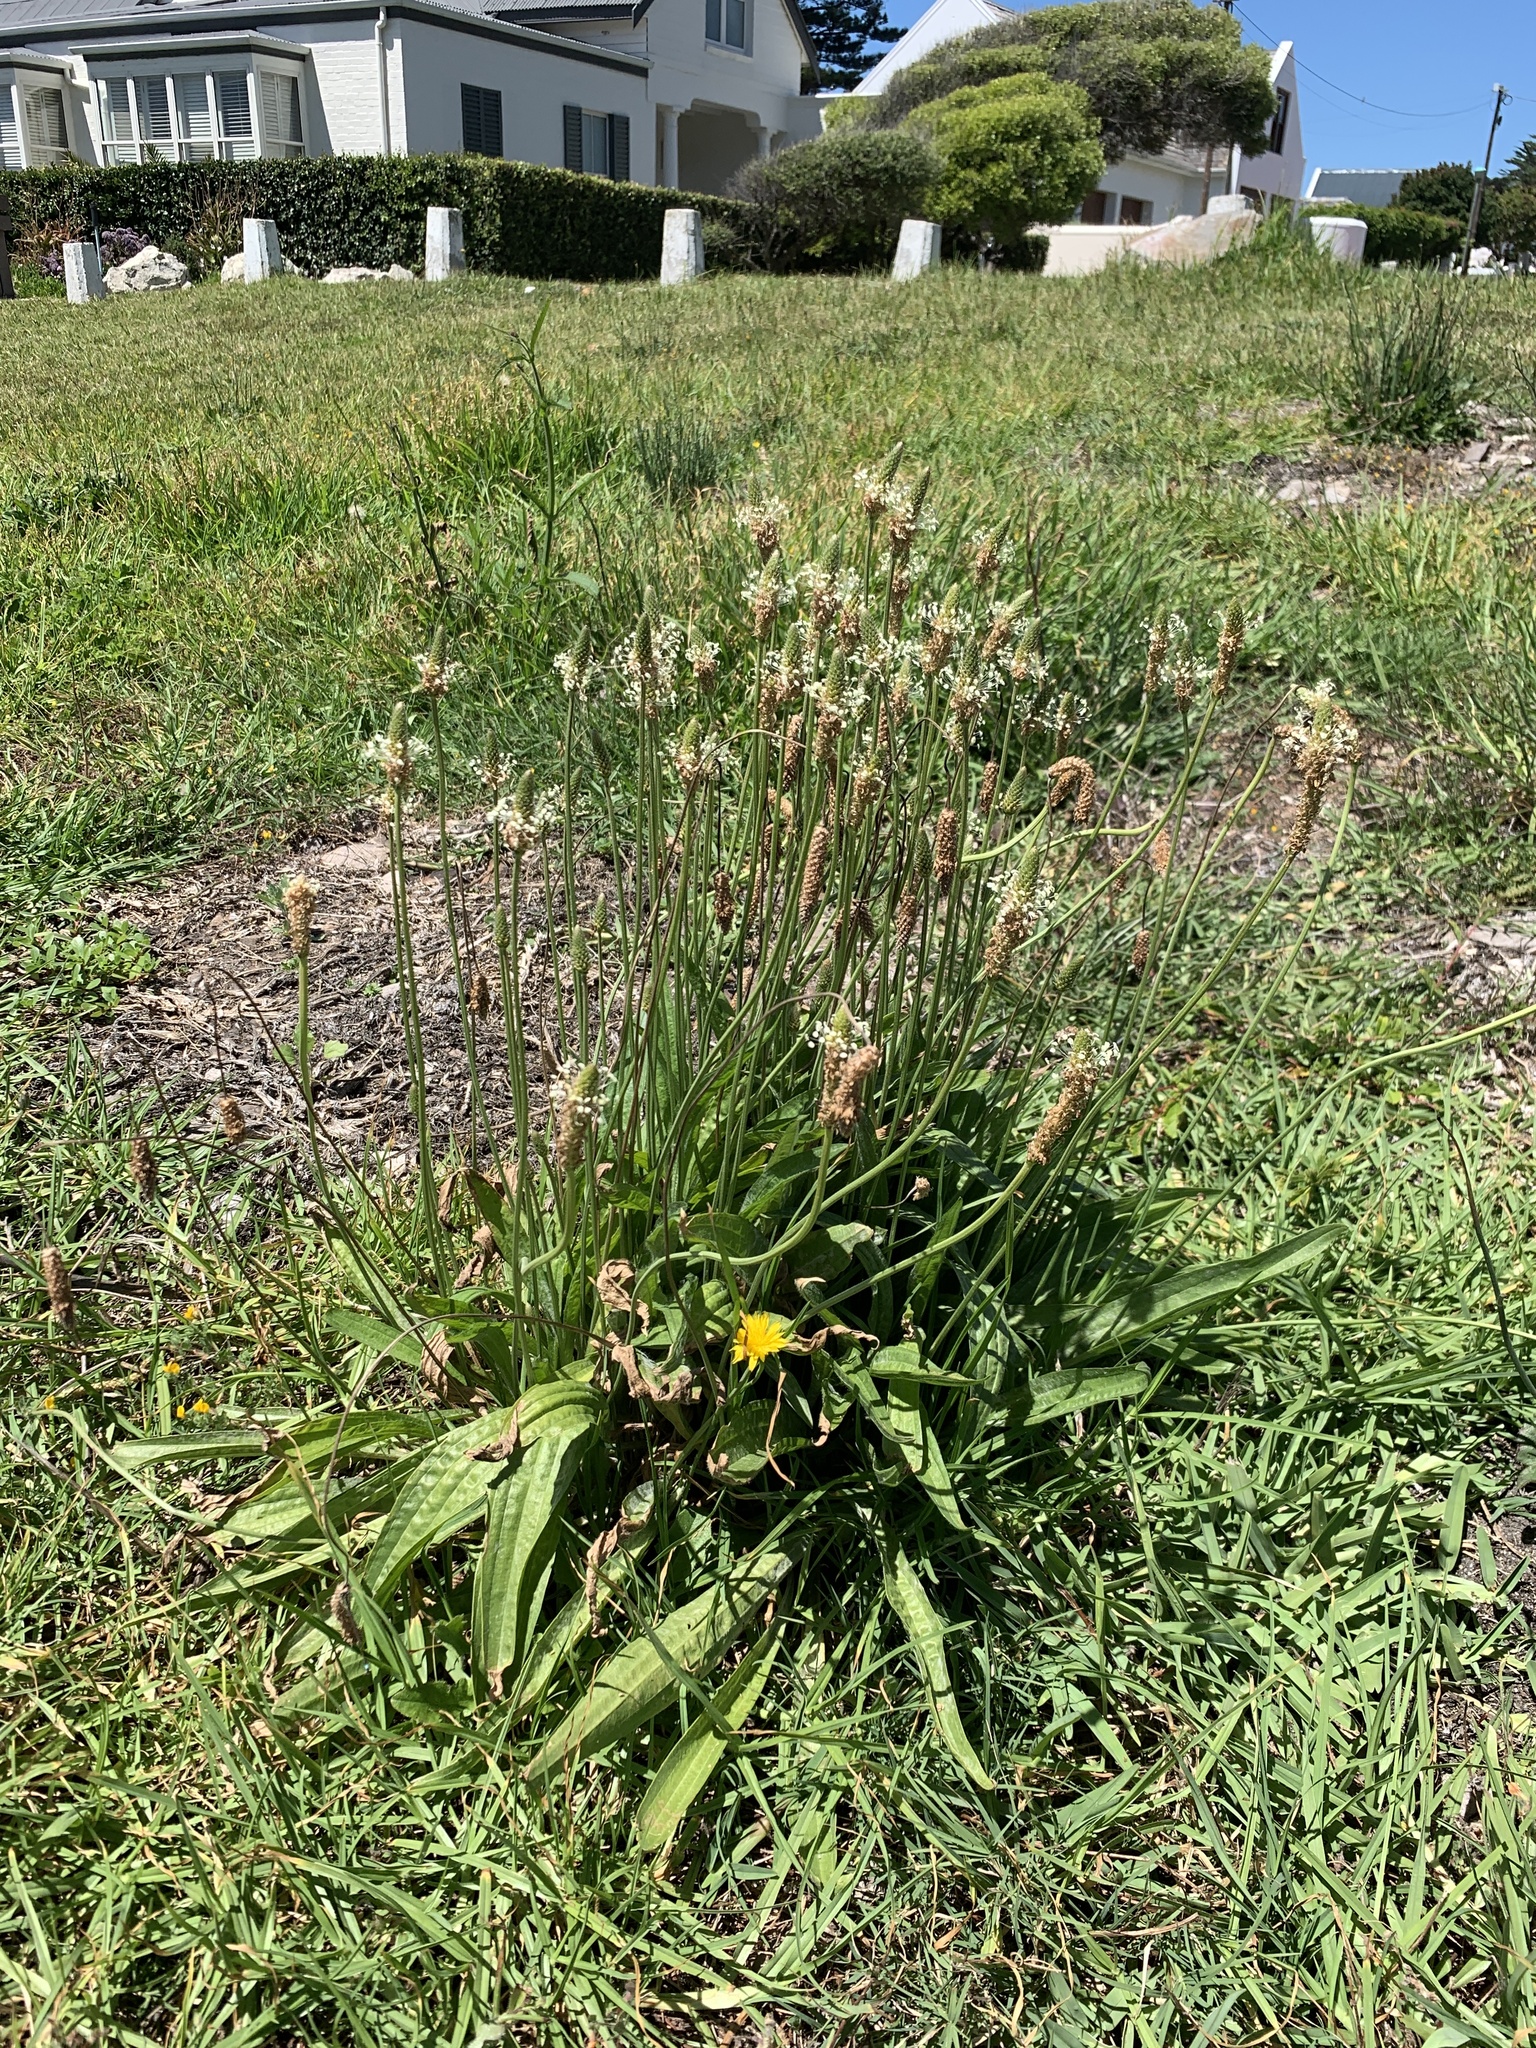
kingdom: Plantae
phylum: Tracheophyta
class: Magnoliopsida
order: Lamiales
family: Plantaginaceae
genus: Plantago
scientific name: Plantago lanceolata
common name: Ribwort plantain
